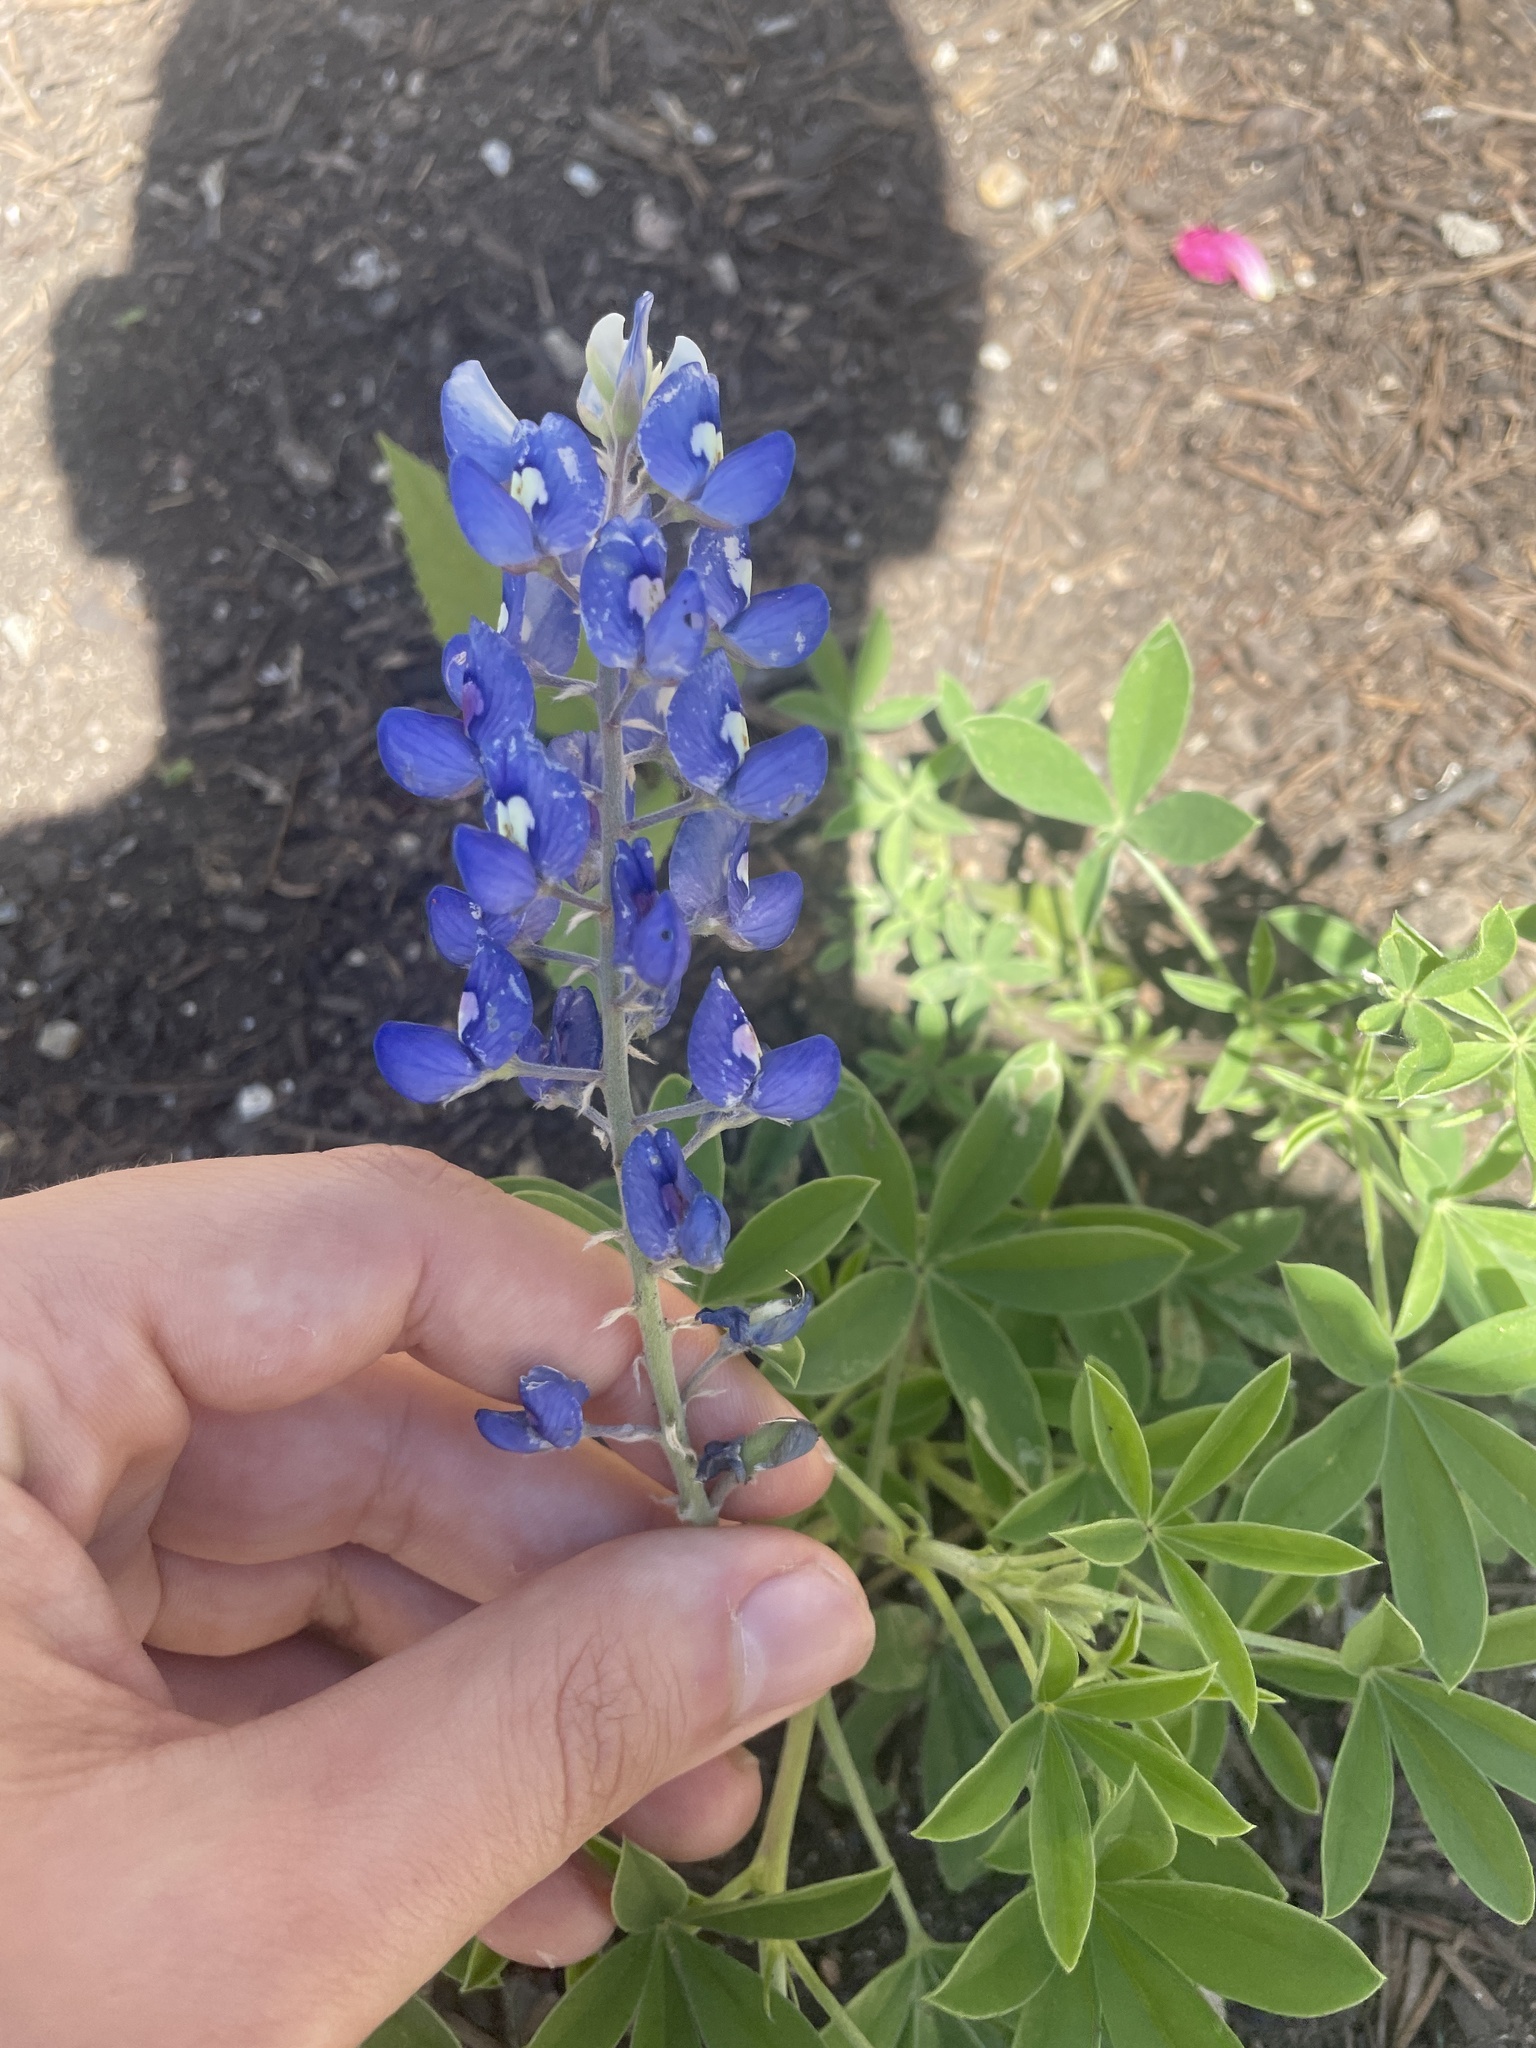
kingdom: Plantae
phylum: Tracheophyta
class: Magnoliopsida
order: Fabales
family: Fabaceae
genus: Lupinus
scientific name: Lupinus texensis
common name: Texas bluebonnet
